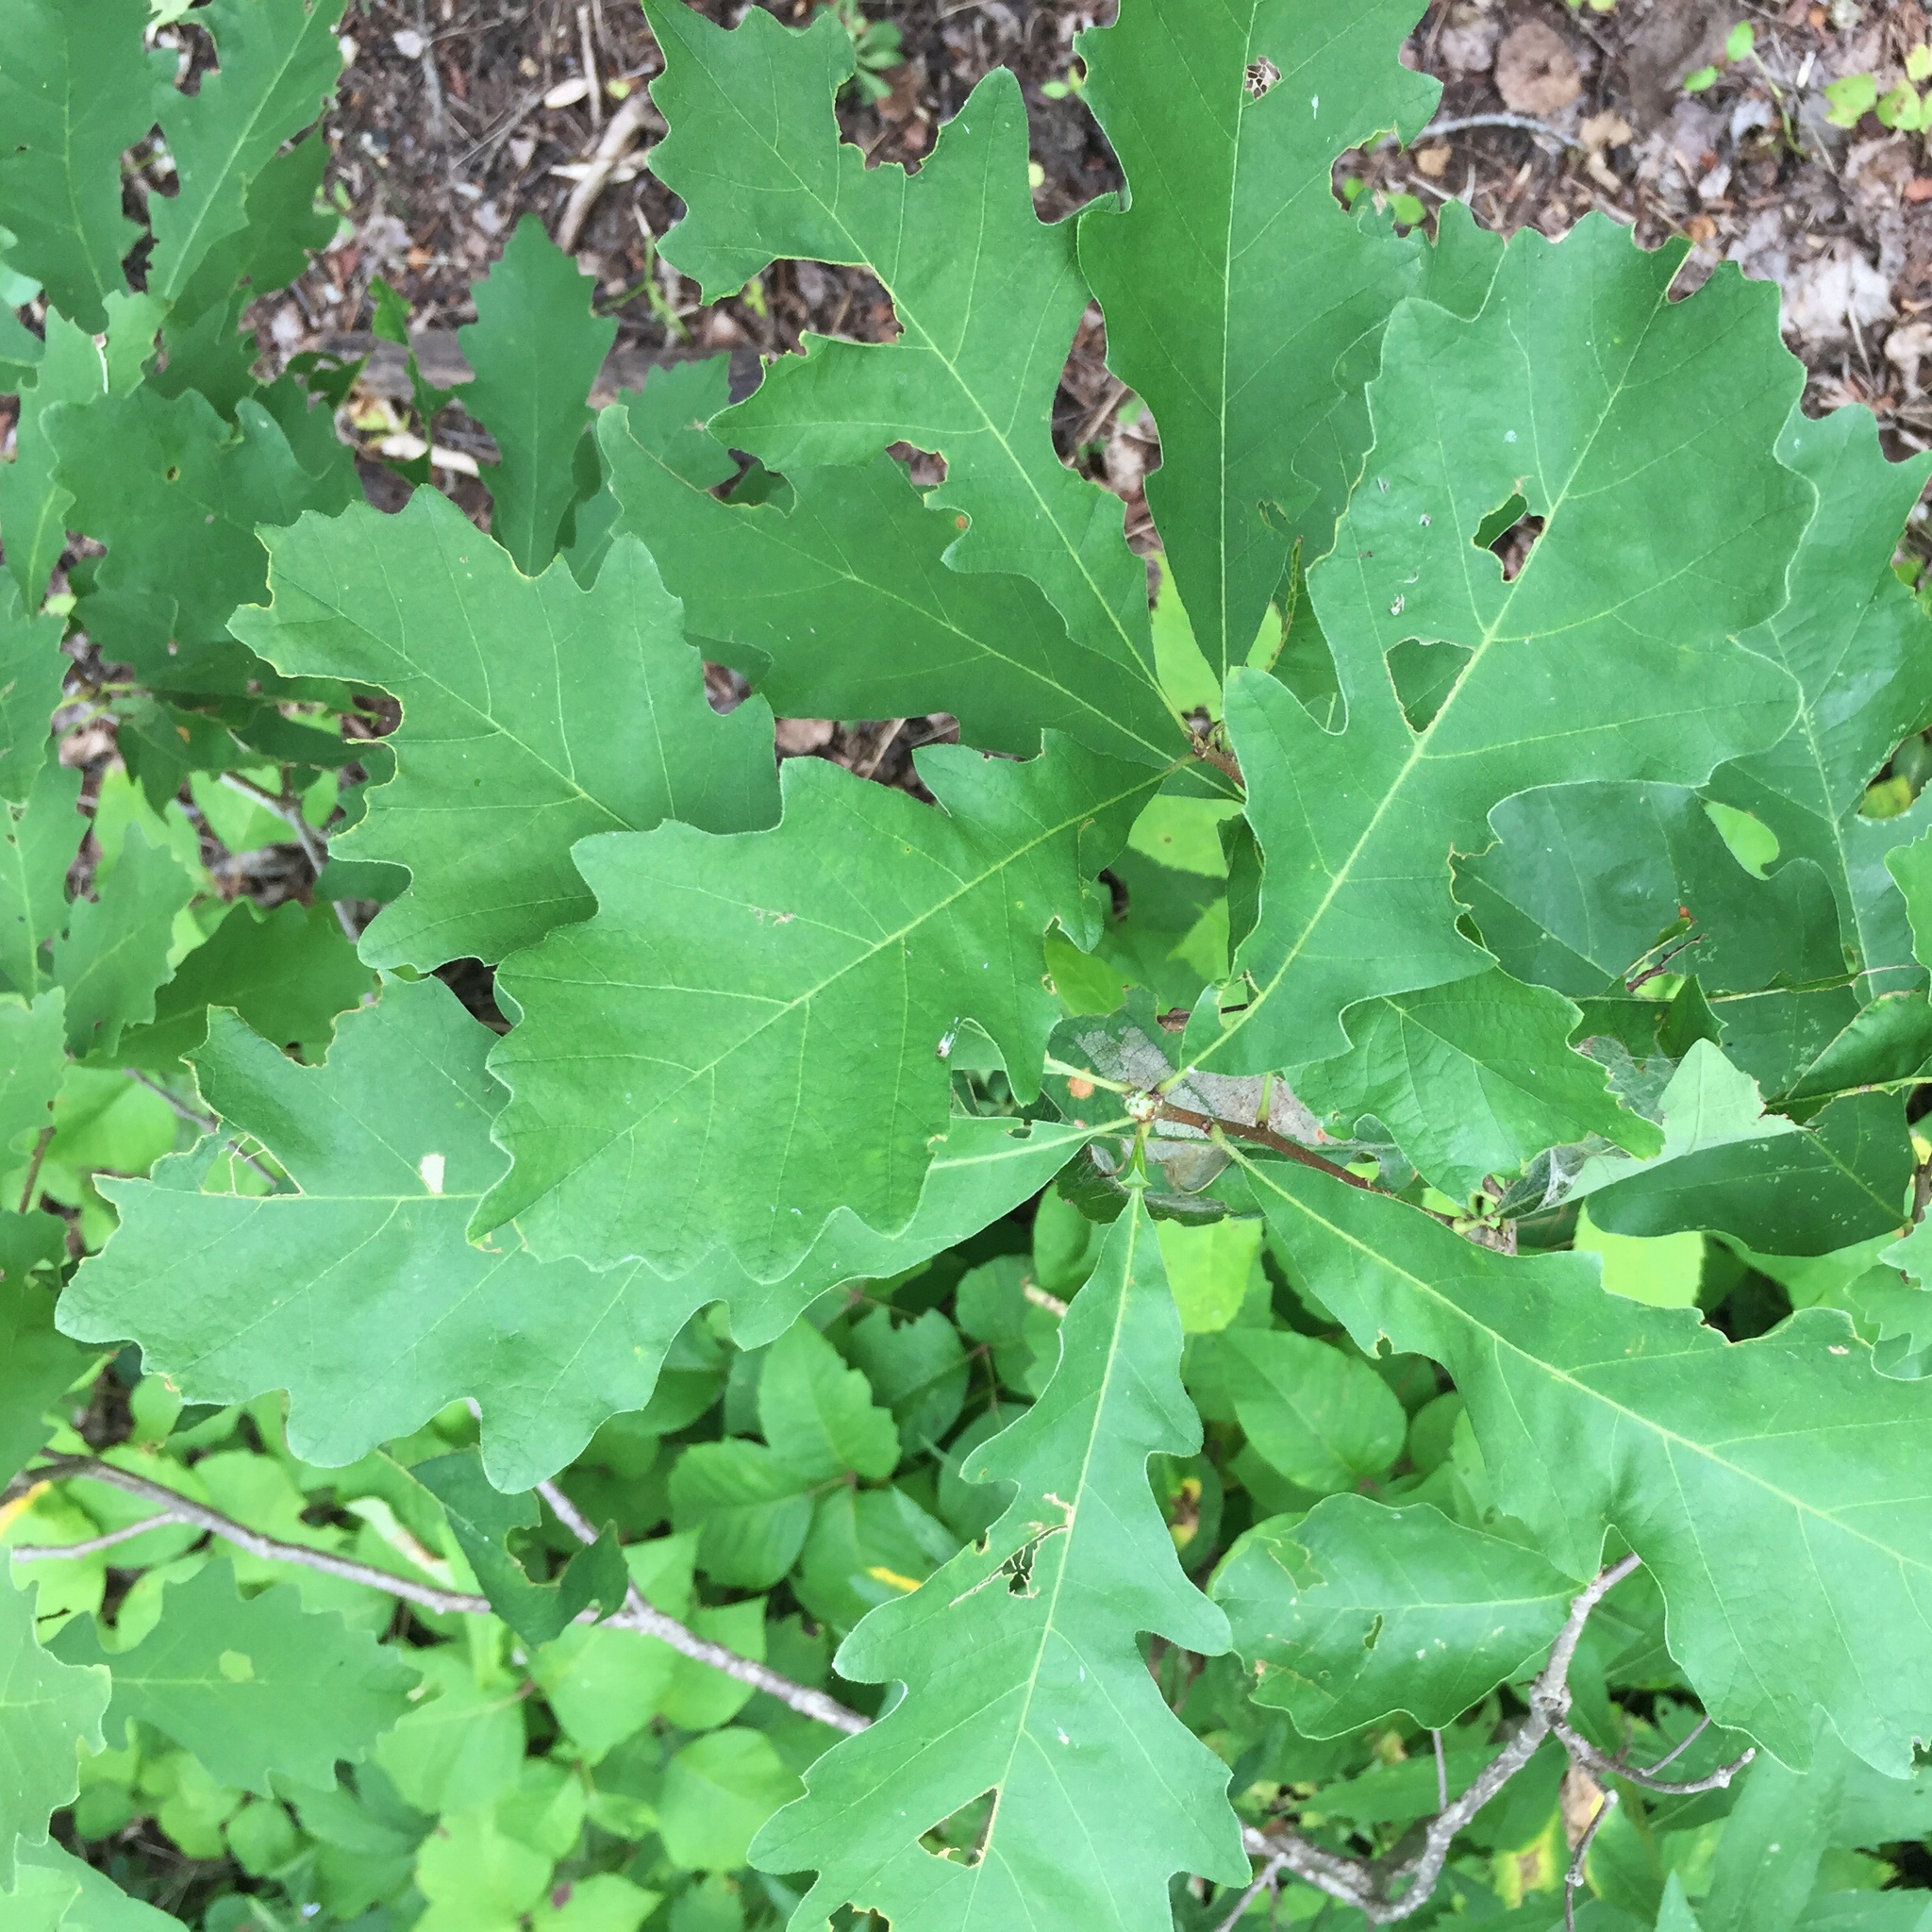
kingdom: Plantae
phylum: Tracheophyta
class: Magnoliopsida
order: Fagales
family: Fagaceae
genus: Quercus
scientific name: Quercus macrocarpa
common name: Bur oak
